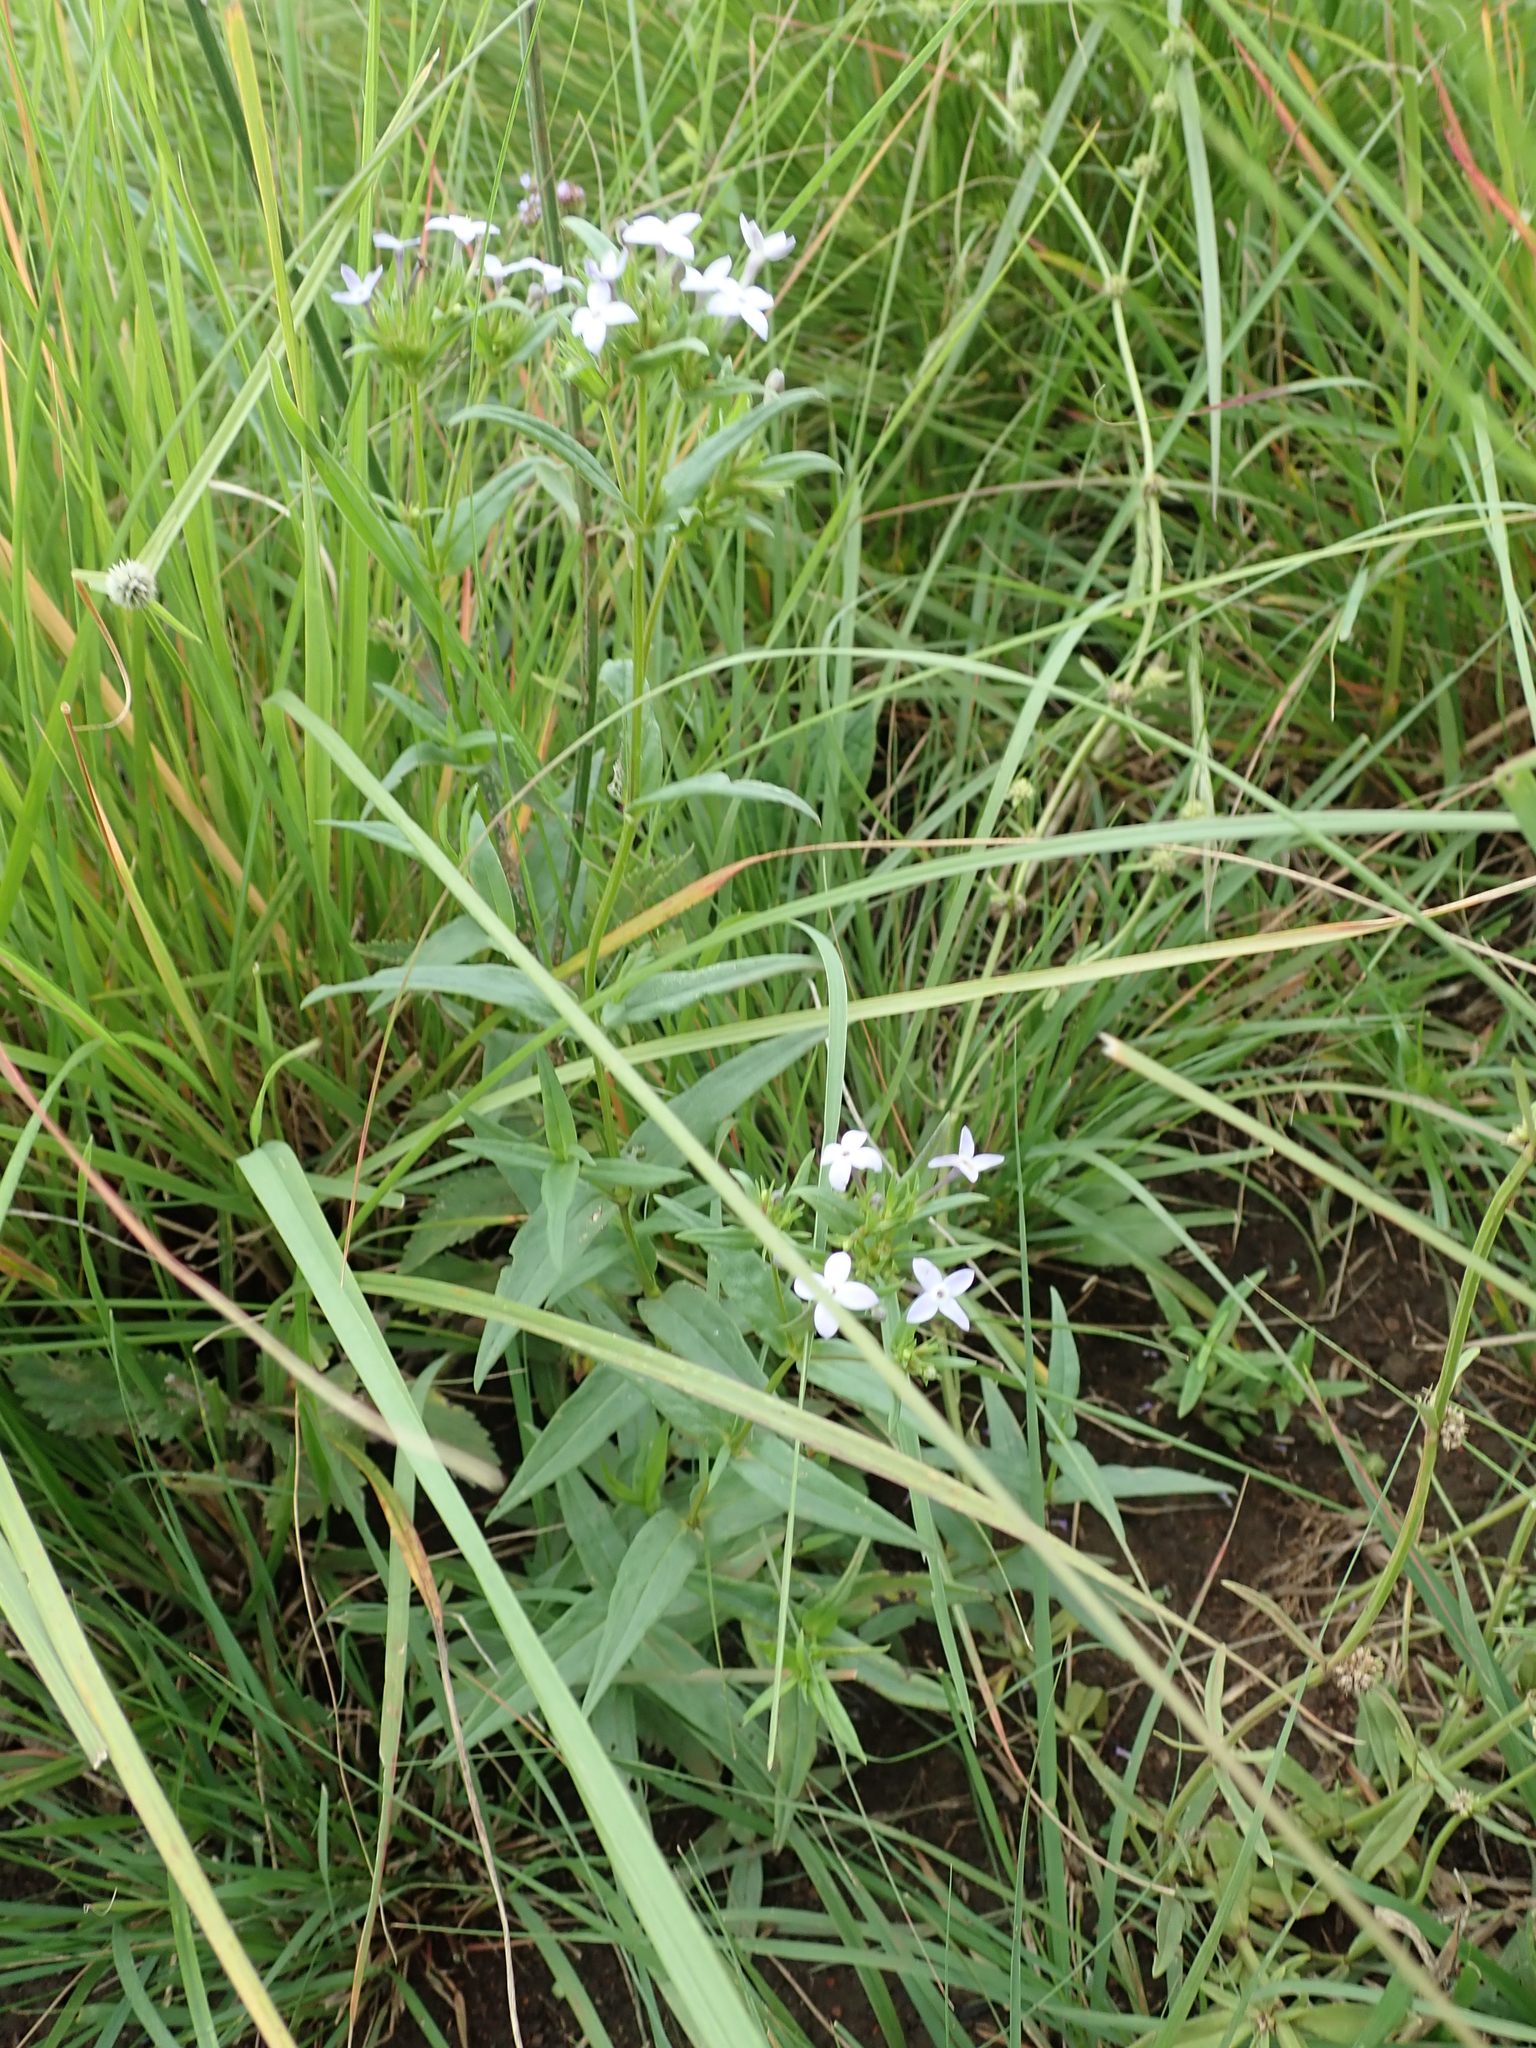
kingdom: Plantae
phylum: Tracheophyta
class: Magnoliopsida
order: Gentianales
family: Rubiaceae
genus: Conostomium
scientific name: Conostomium natalense
